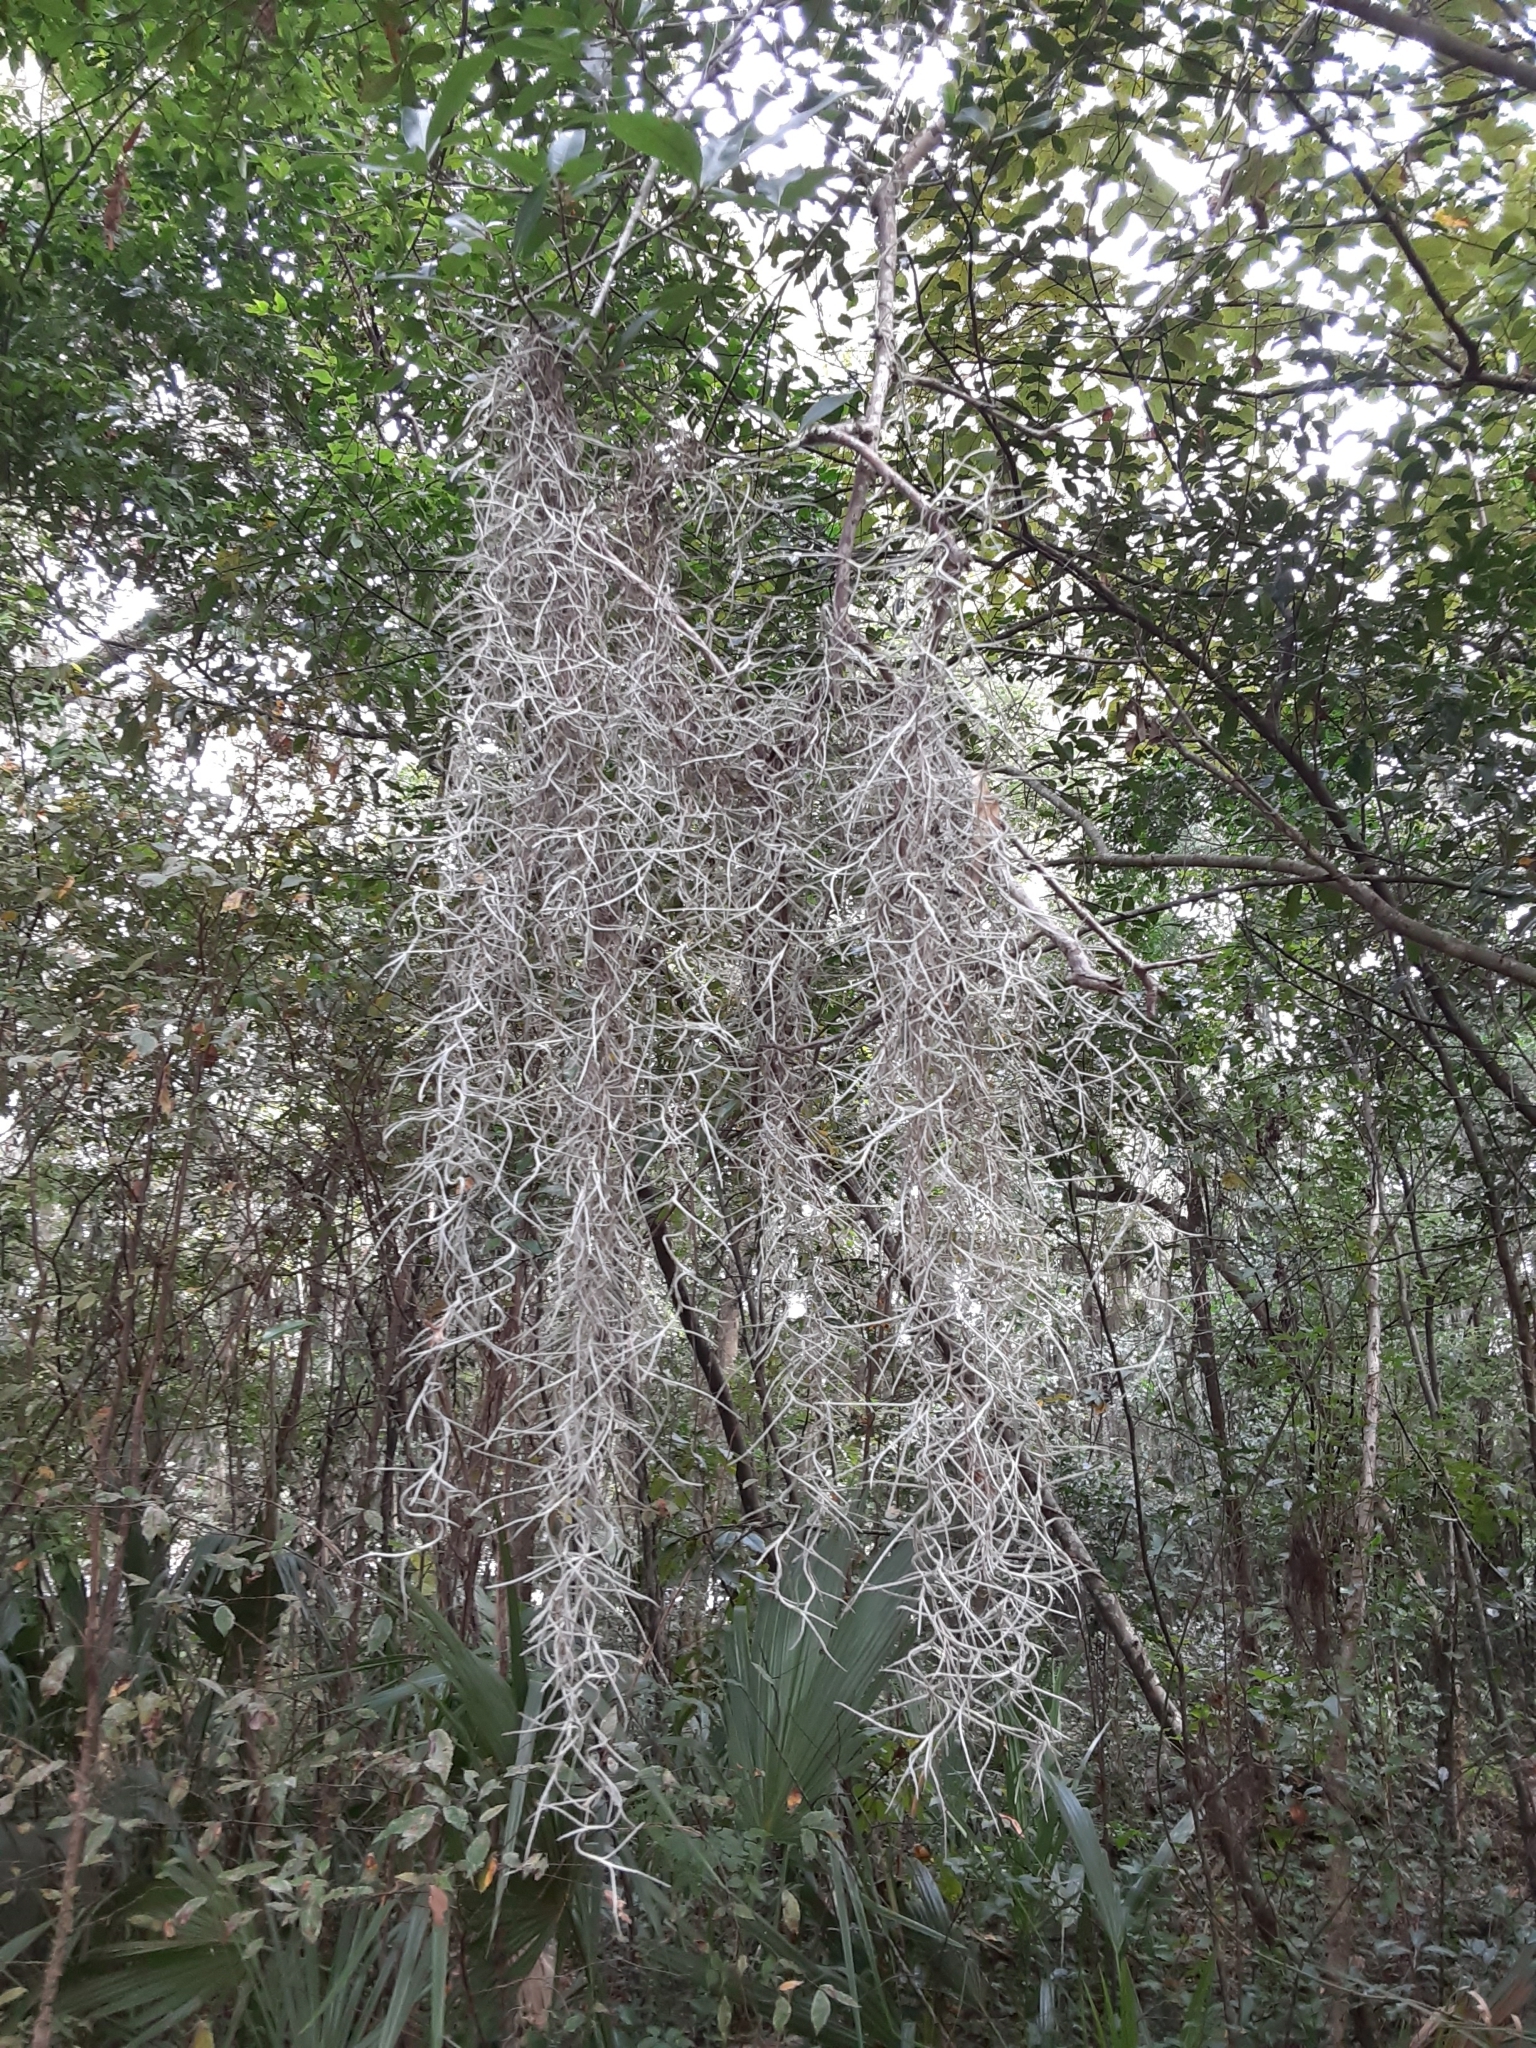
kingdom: Plantae
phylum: Tracheophyta
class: Liliopsida
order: Poales
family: Bromeliaceae
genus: Tillandsia
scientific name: Tillandsia usneoides
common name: Spanish moss
